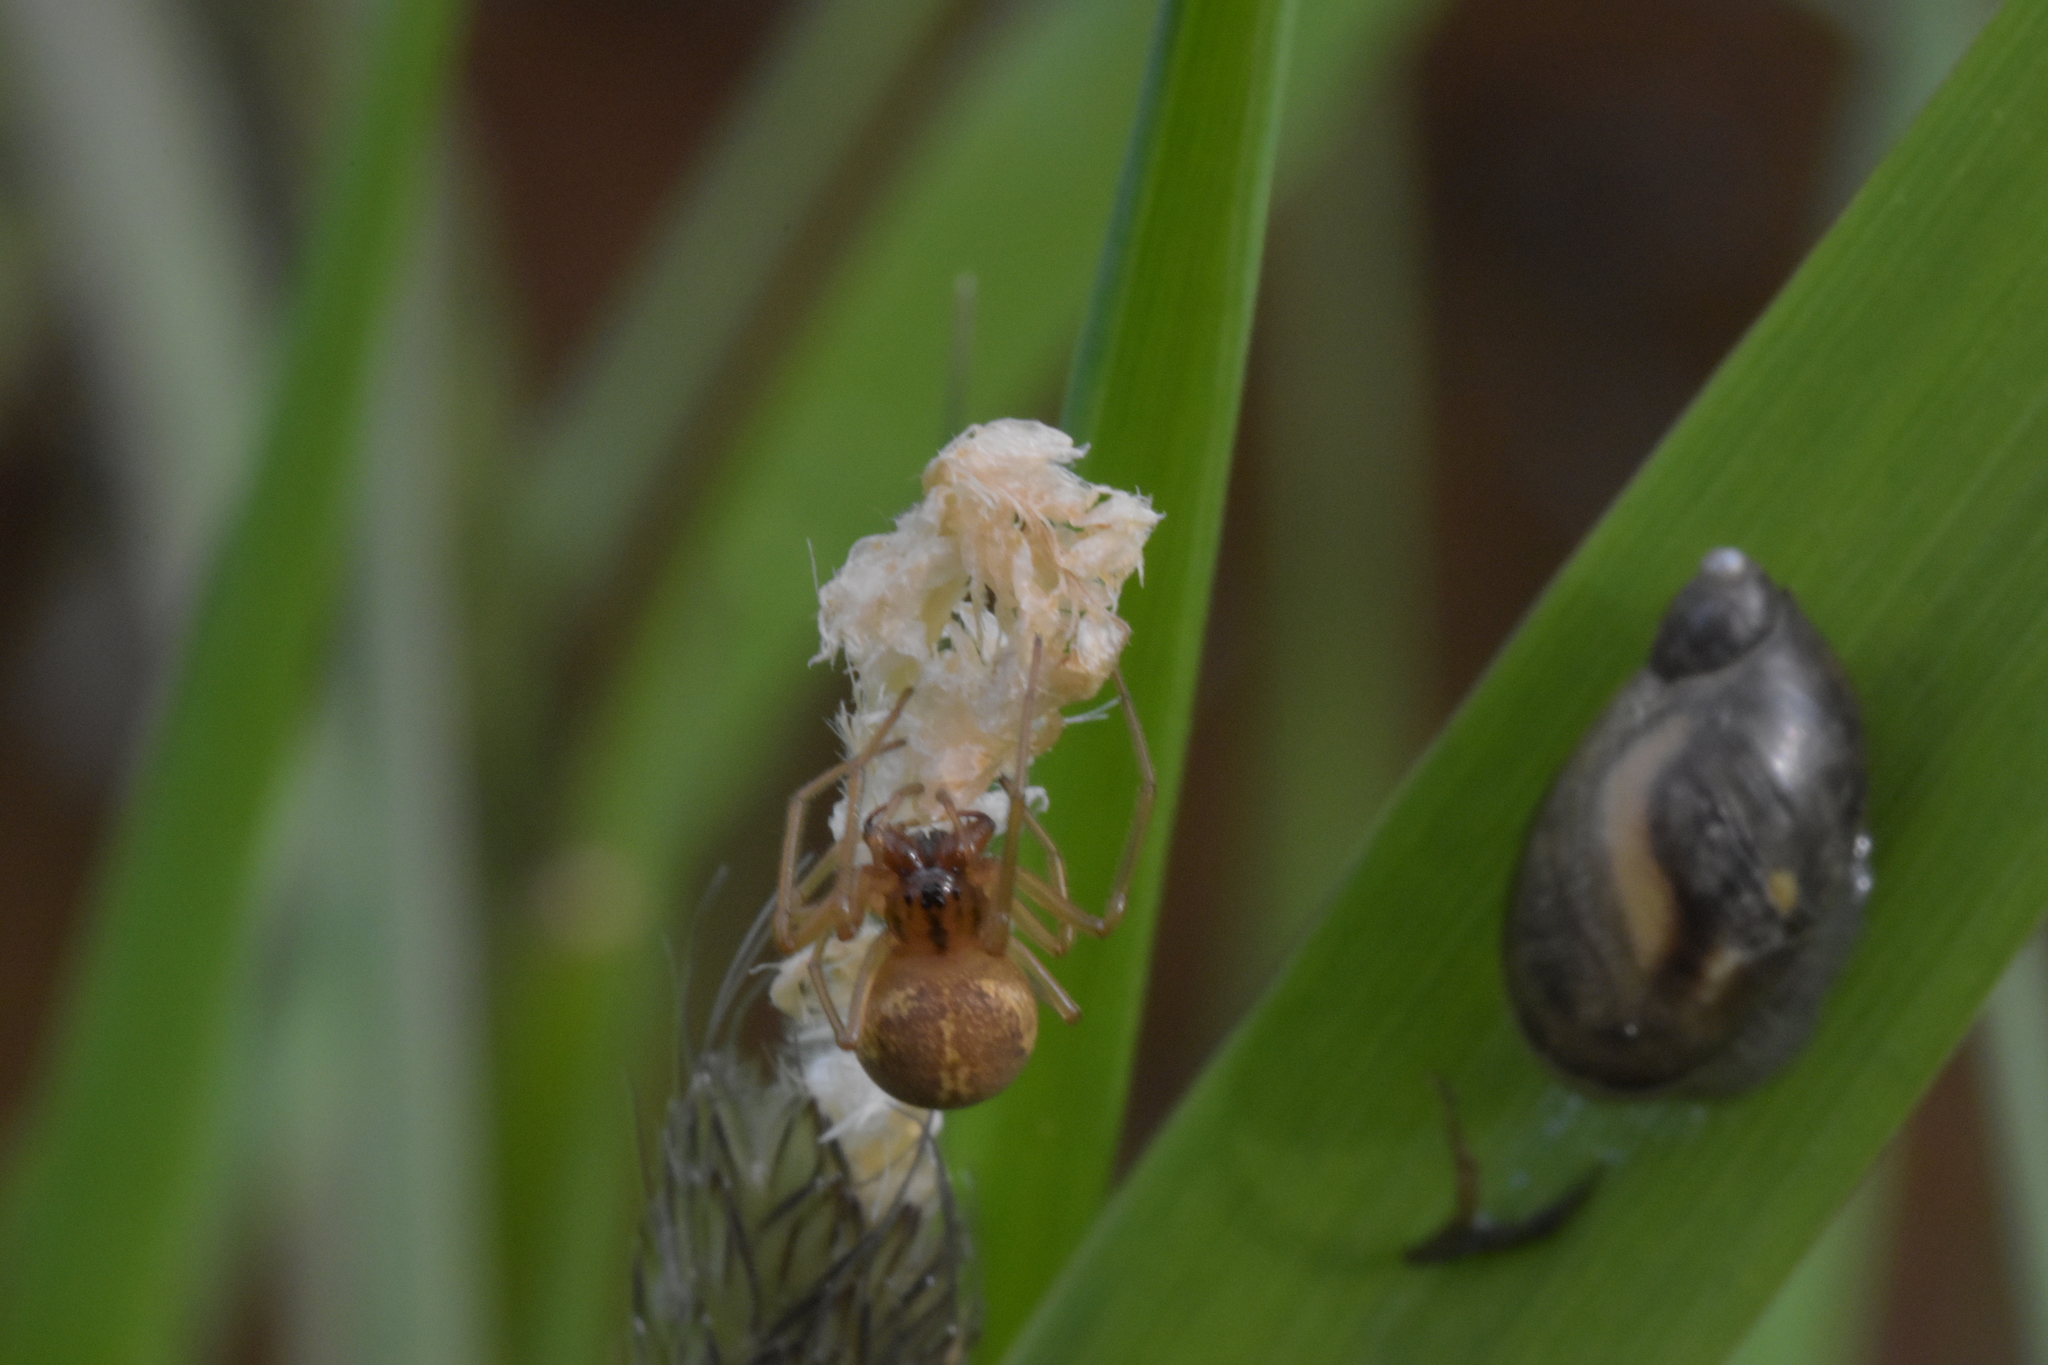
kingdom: Animalia
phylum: Arthropoda
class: Arachnida
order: Araneae
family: Tetragnathidae
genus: Pachygnatha
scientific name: Pachygnatha clercki
